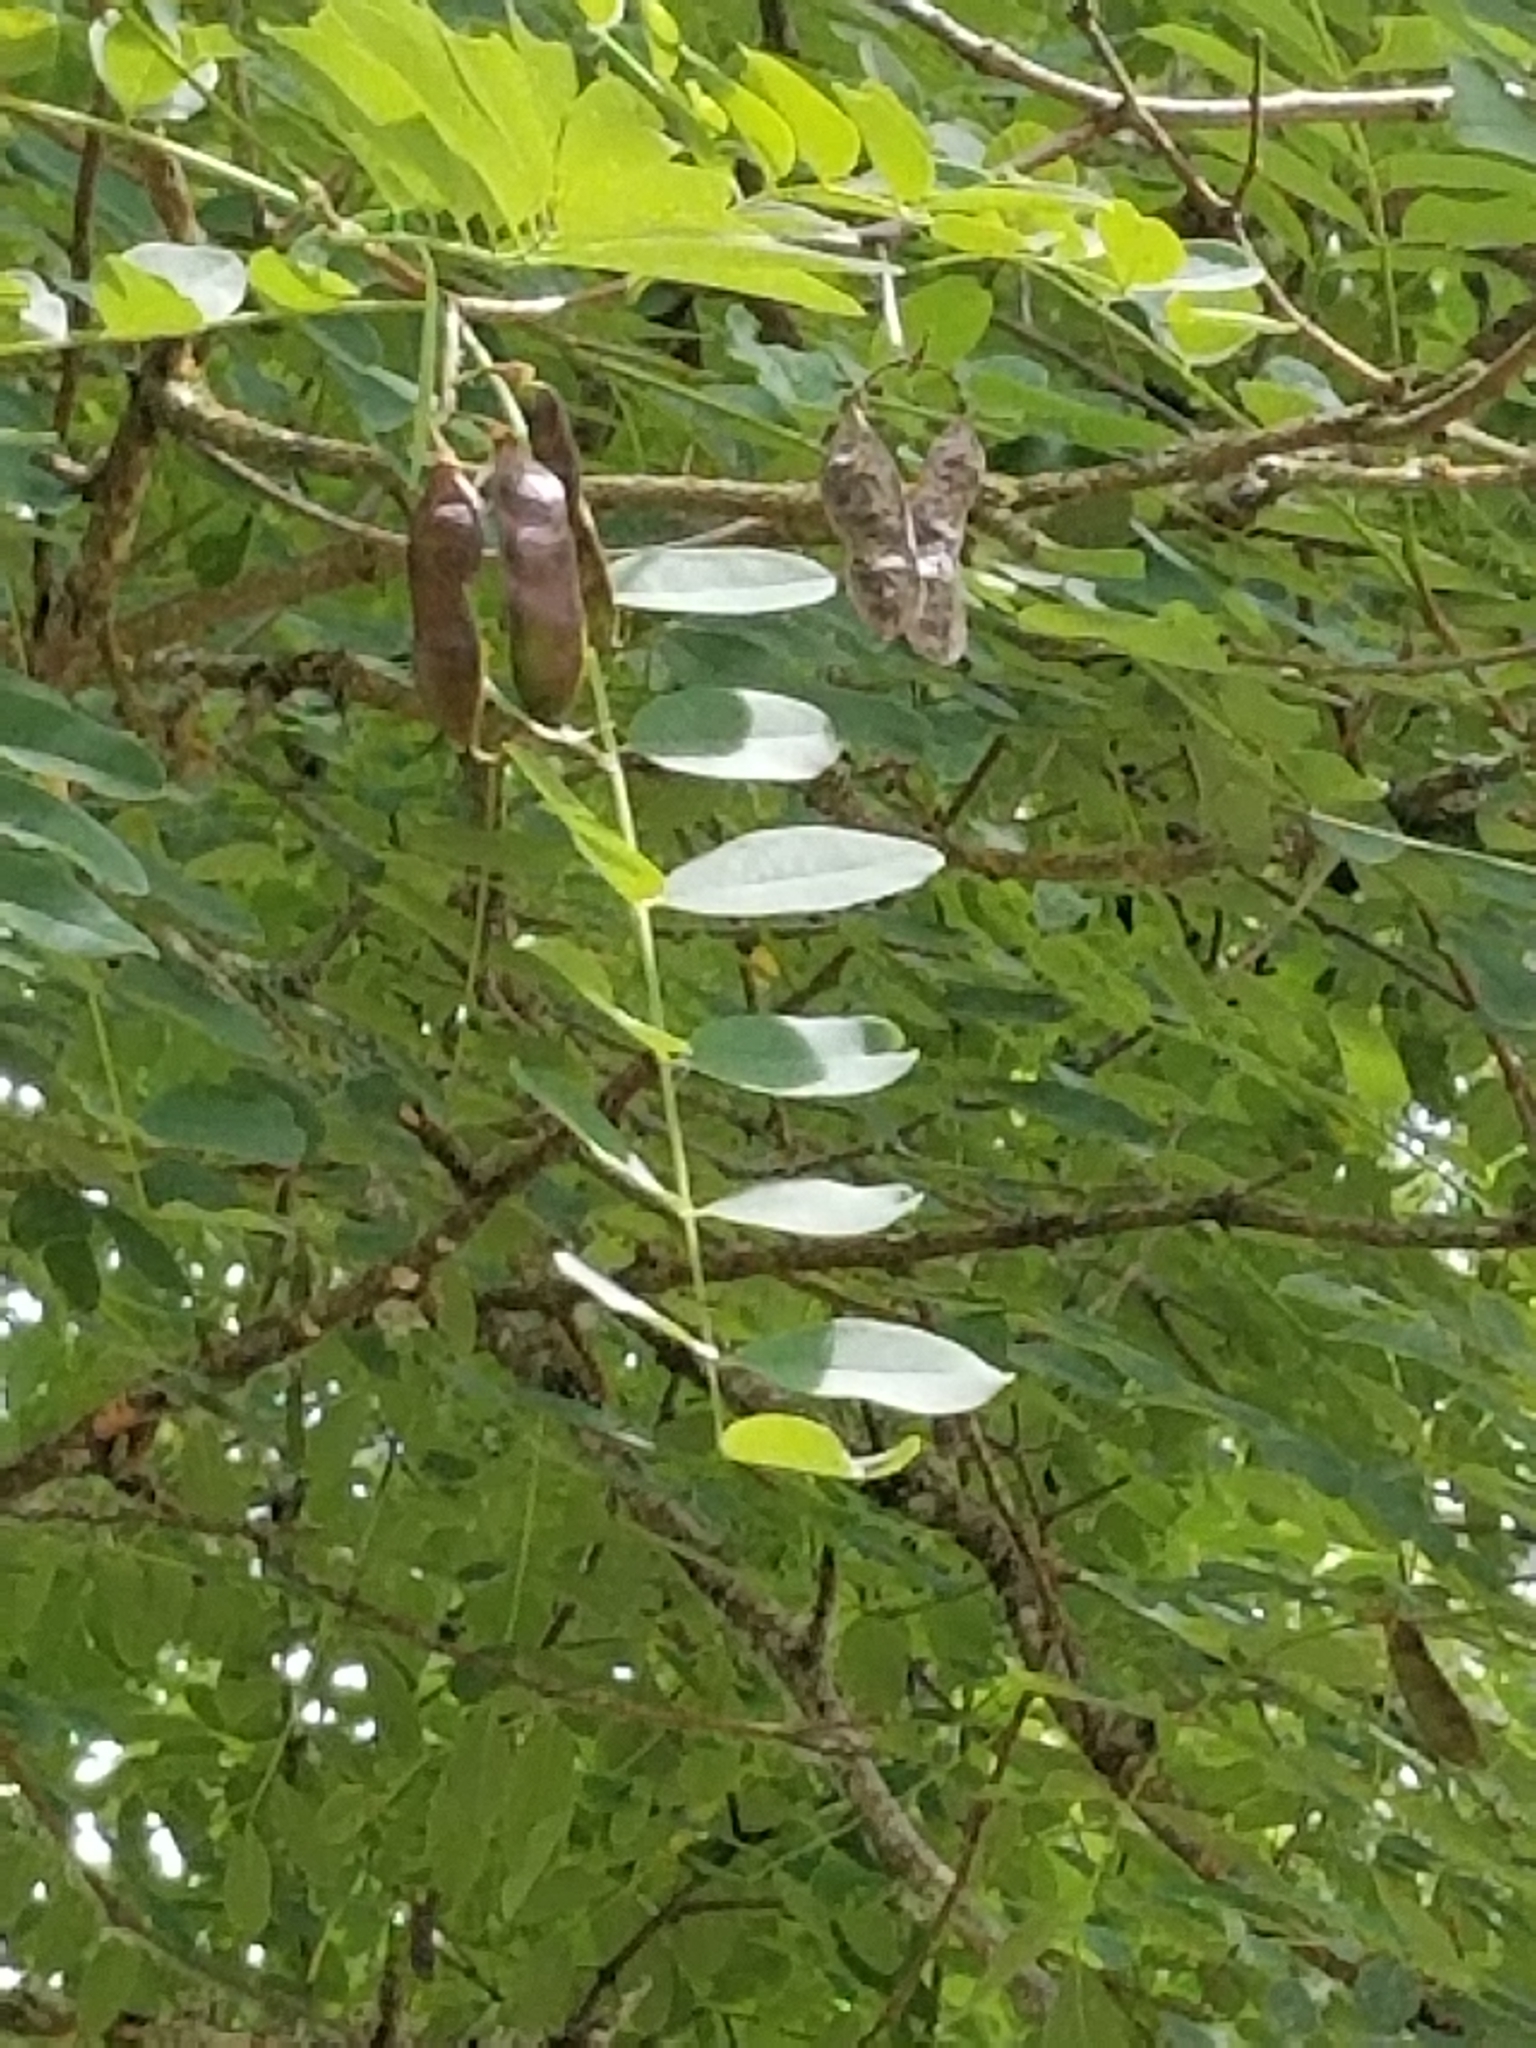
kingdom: Plantae
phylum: Tracheophyta
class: Magnoliopsida
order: Fabales
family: Fabaceae
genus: Robinia
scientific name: Robinia pseudoacacia
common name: Black locust
